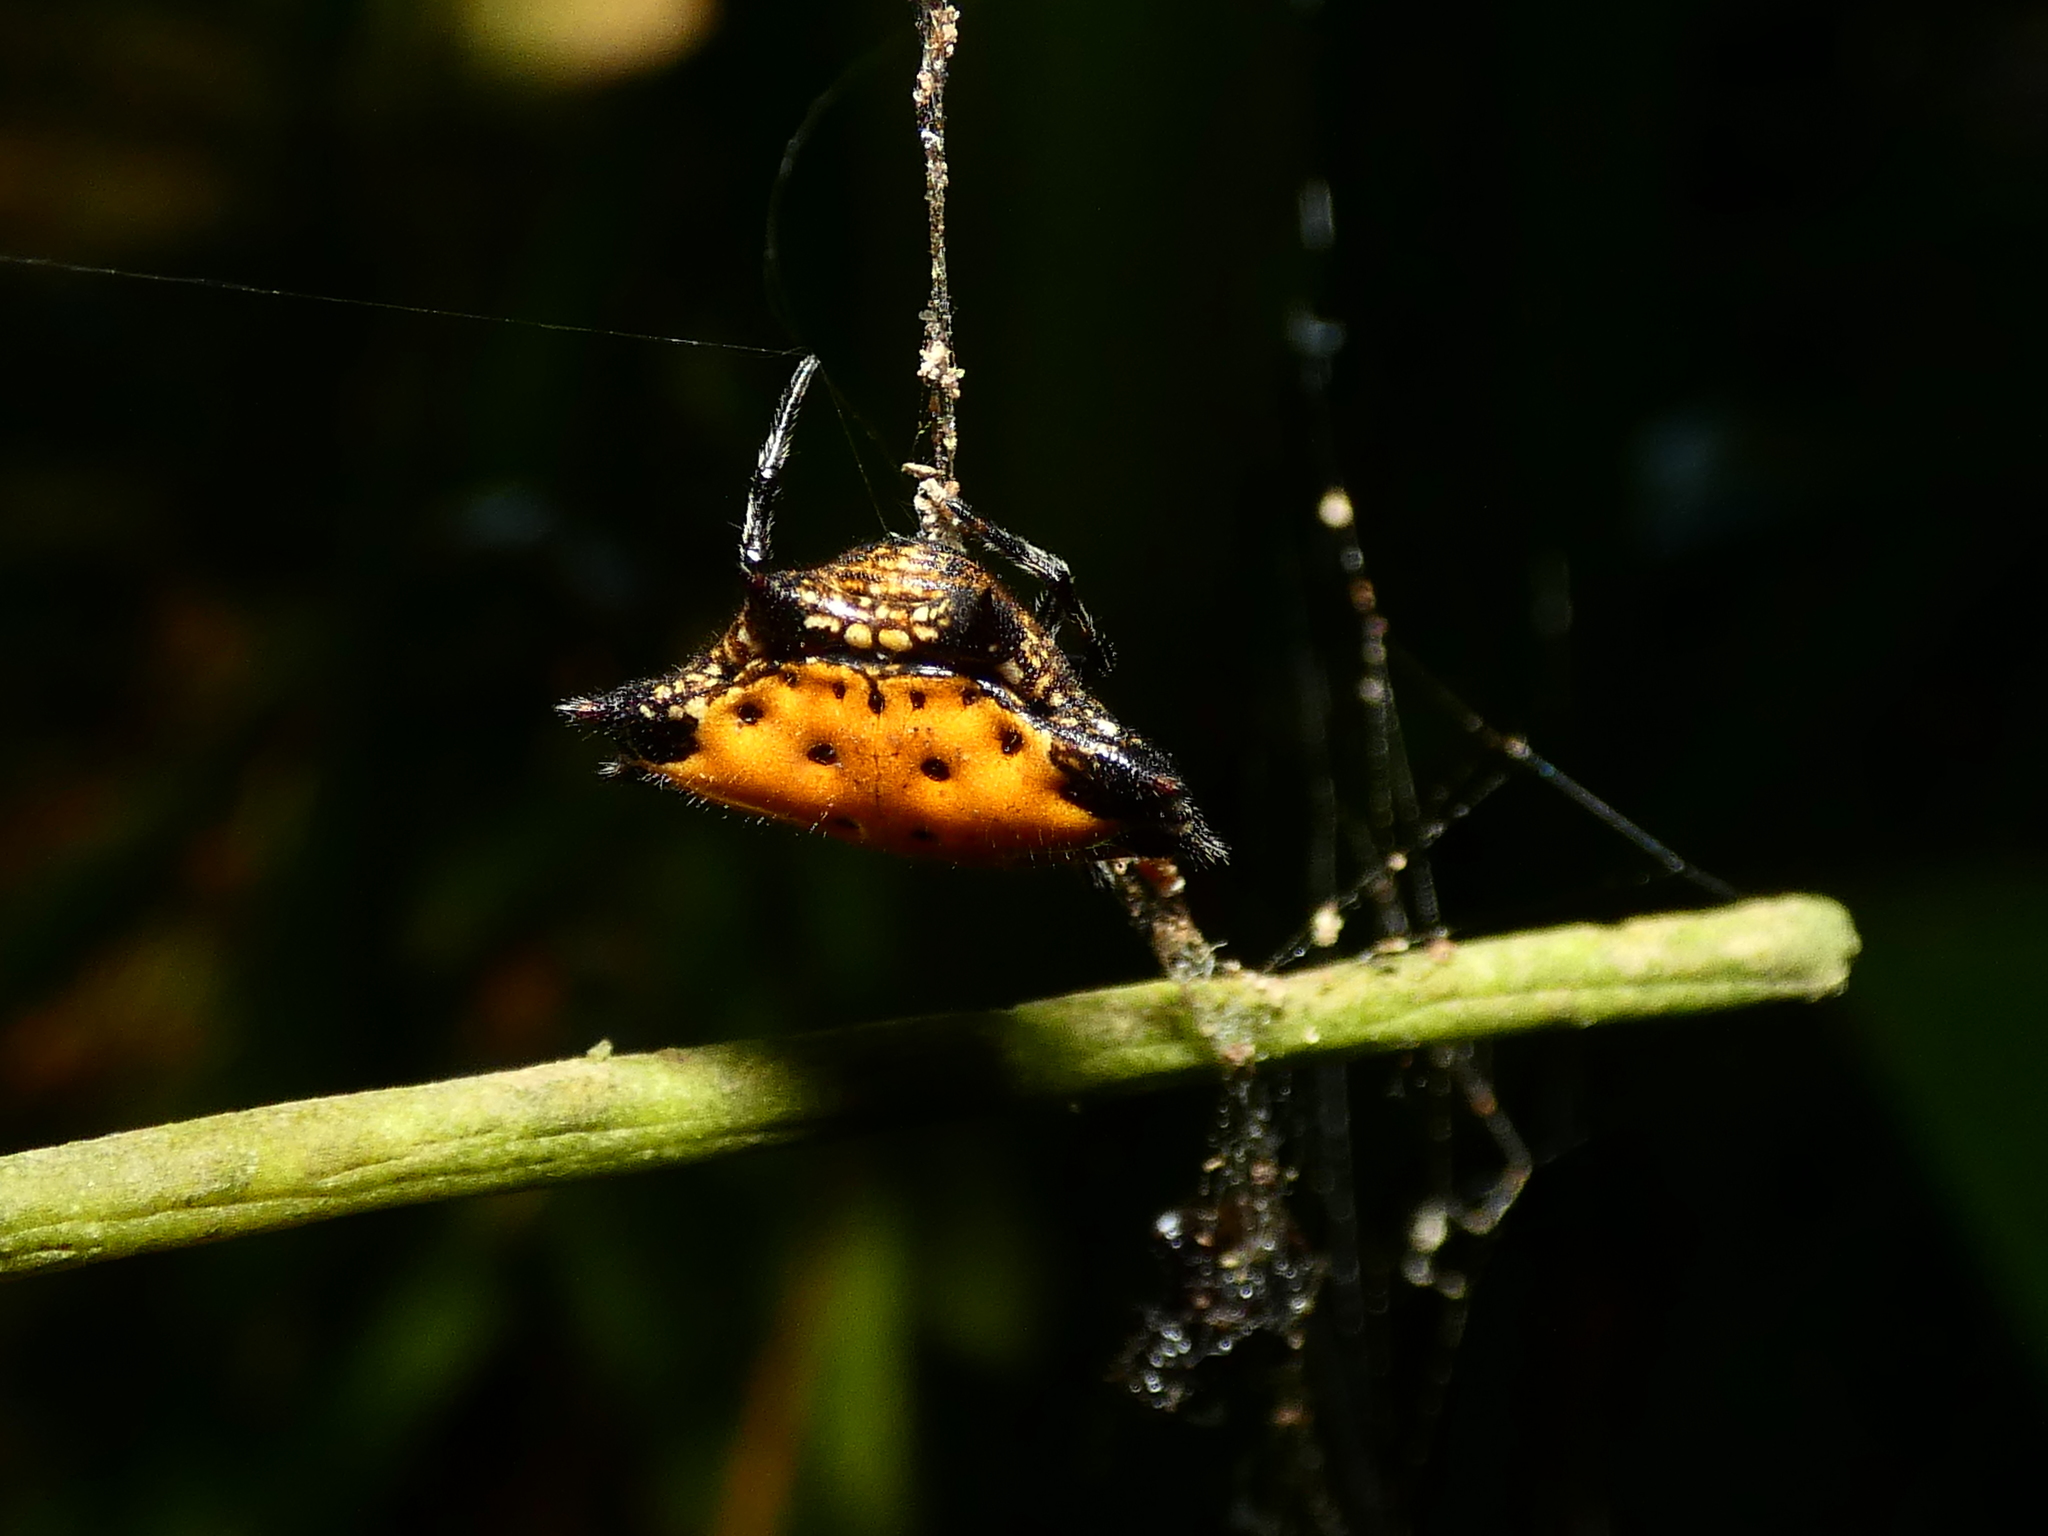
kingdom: Animalia
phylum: Arthropoda
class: Arachnida
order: Araneae
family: Araneidae
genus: Gasteracantha
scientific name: Gasteracantha cancriformis
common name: Orb weavers
